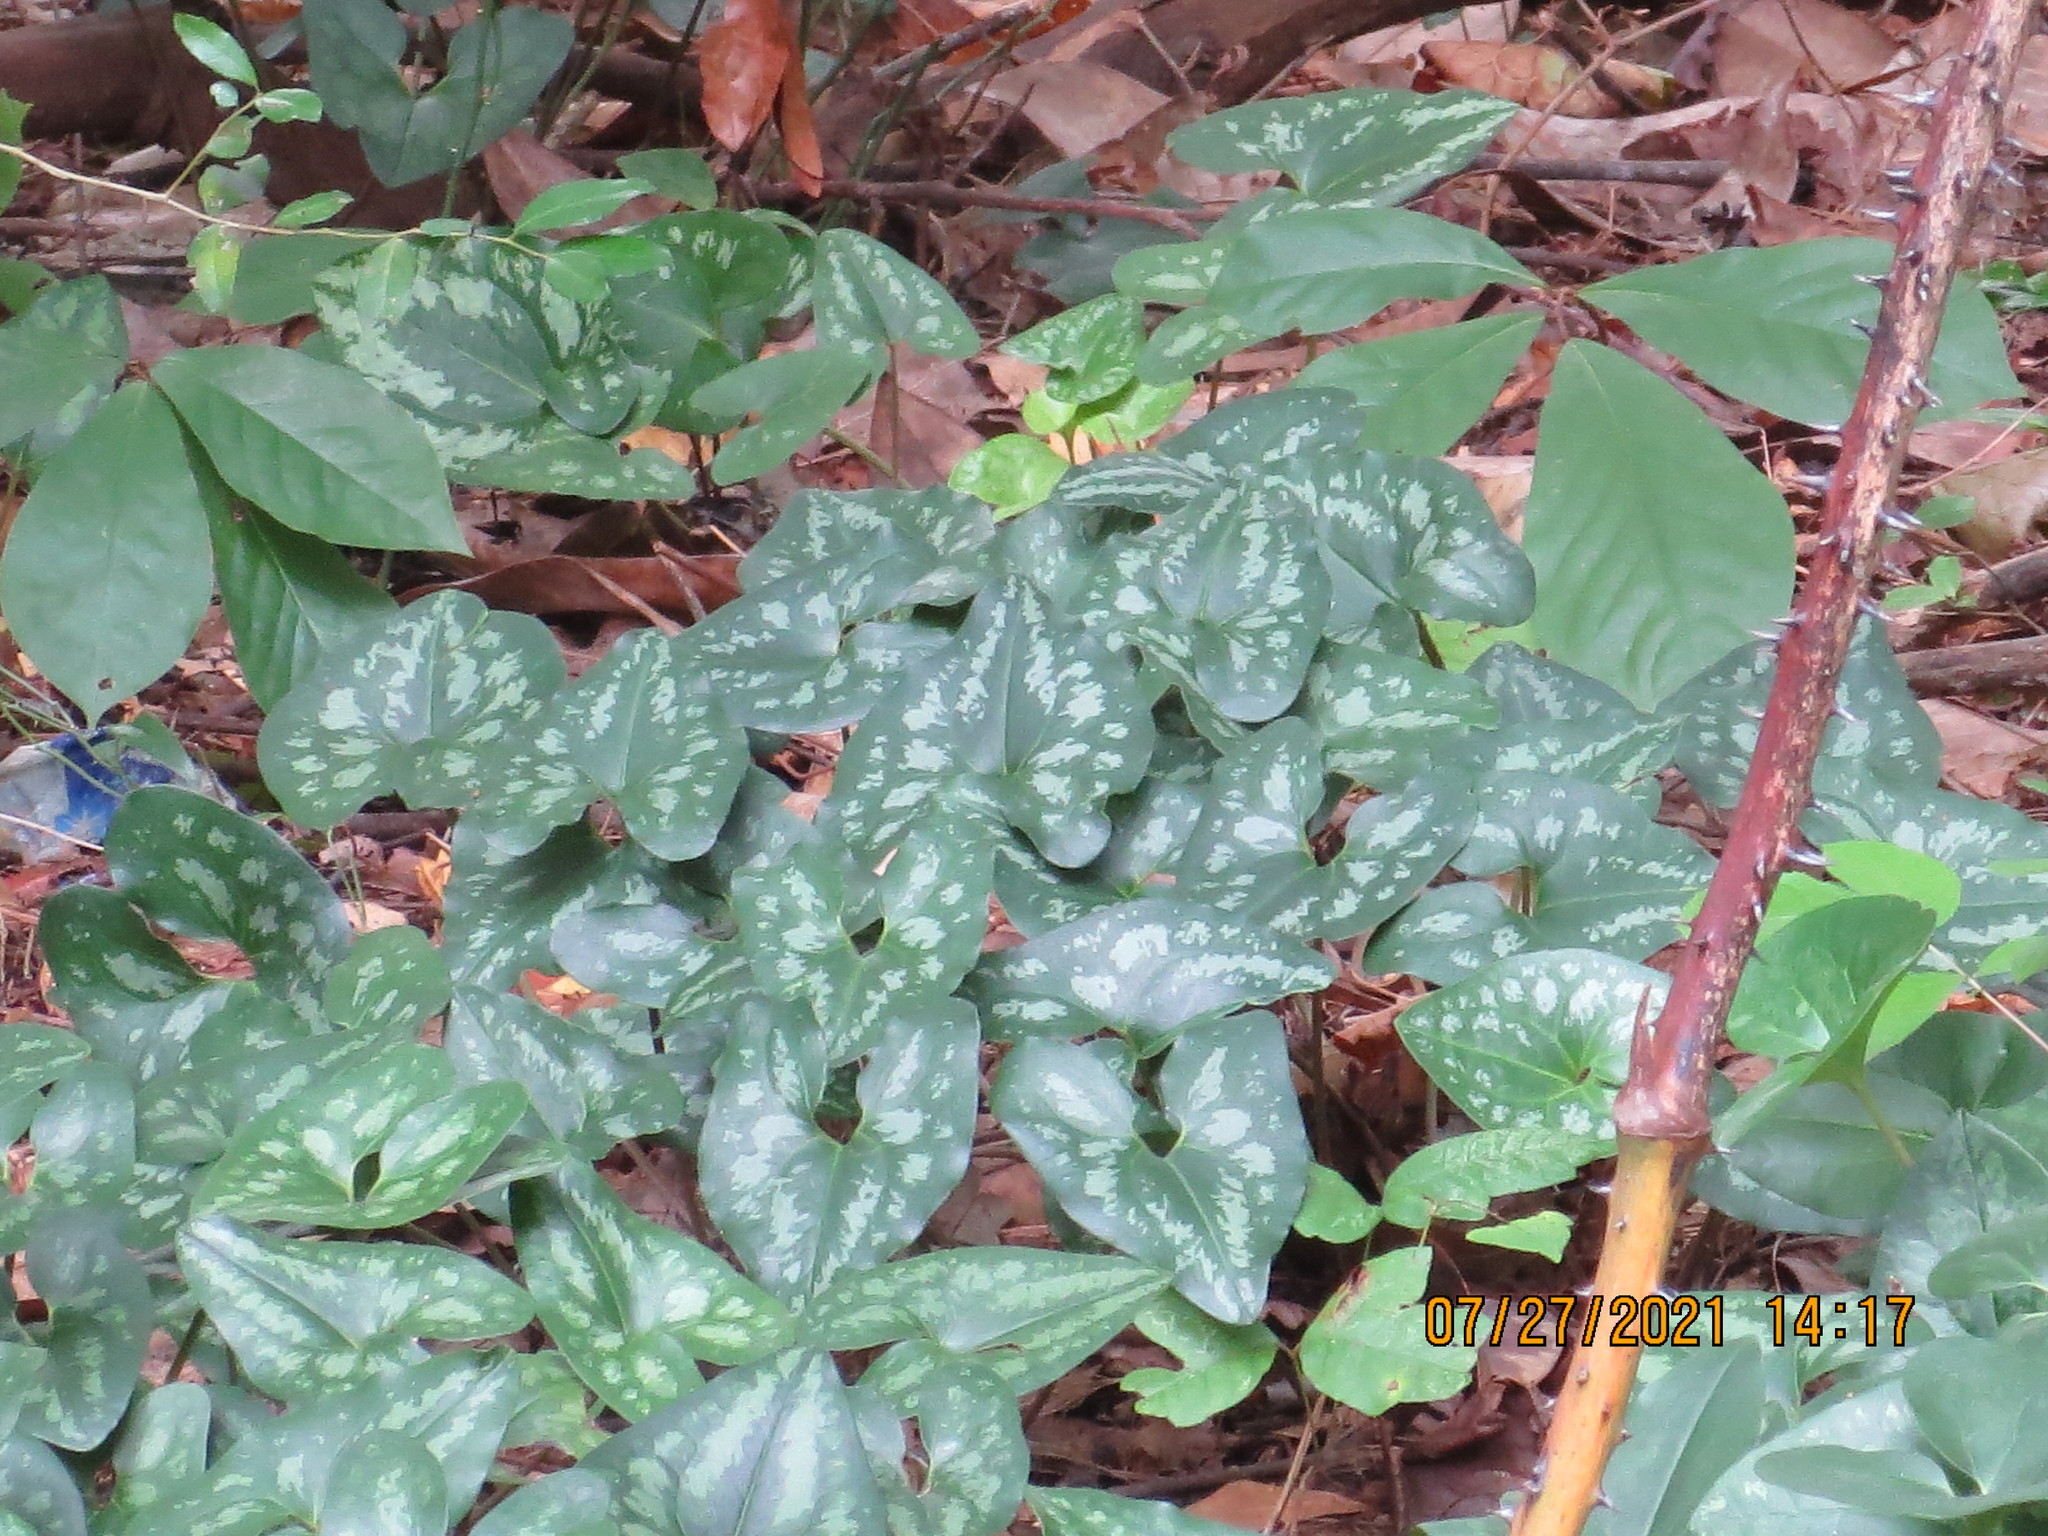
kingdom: Plantae
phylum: Tracheophyta
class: Magnoliopsida
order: Sapindales
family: Anacardiaceae
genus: Toxicodendron
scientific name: Toxicodendron radicans
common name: Poison ivy
